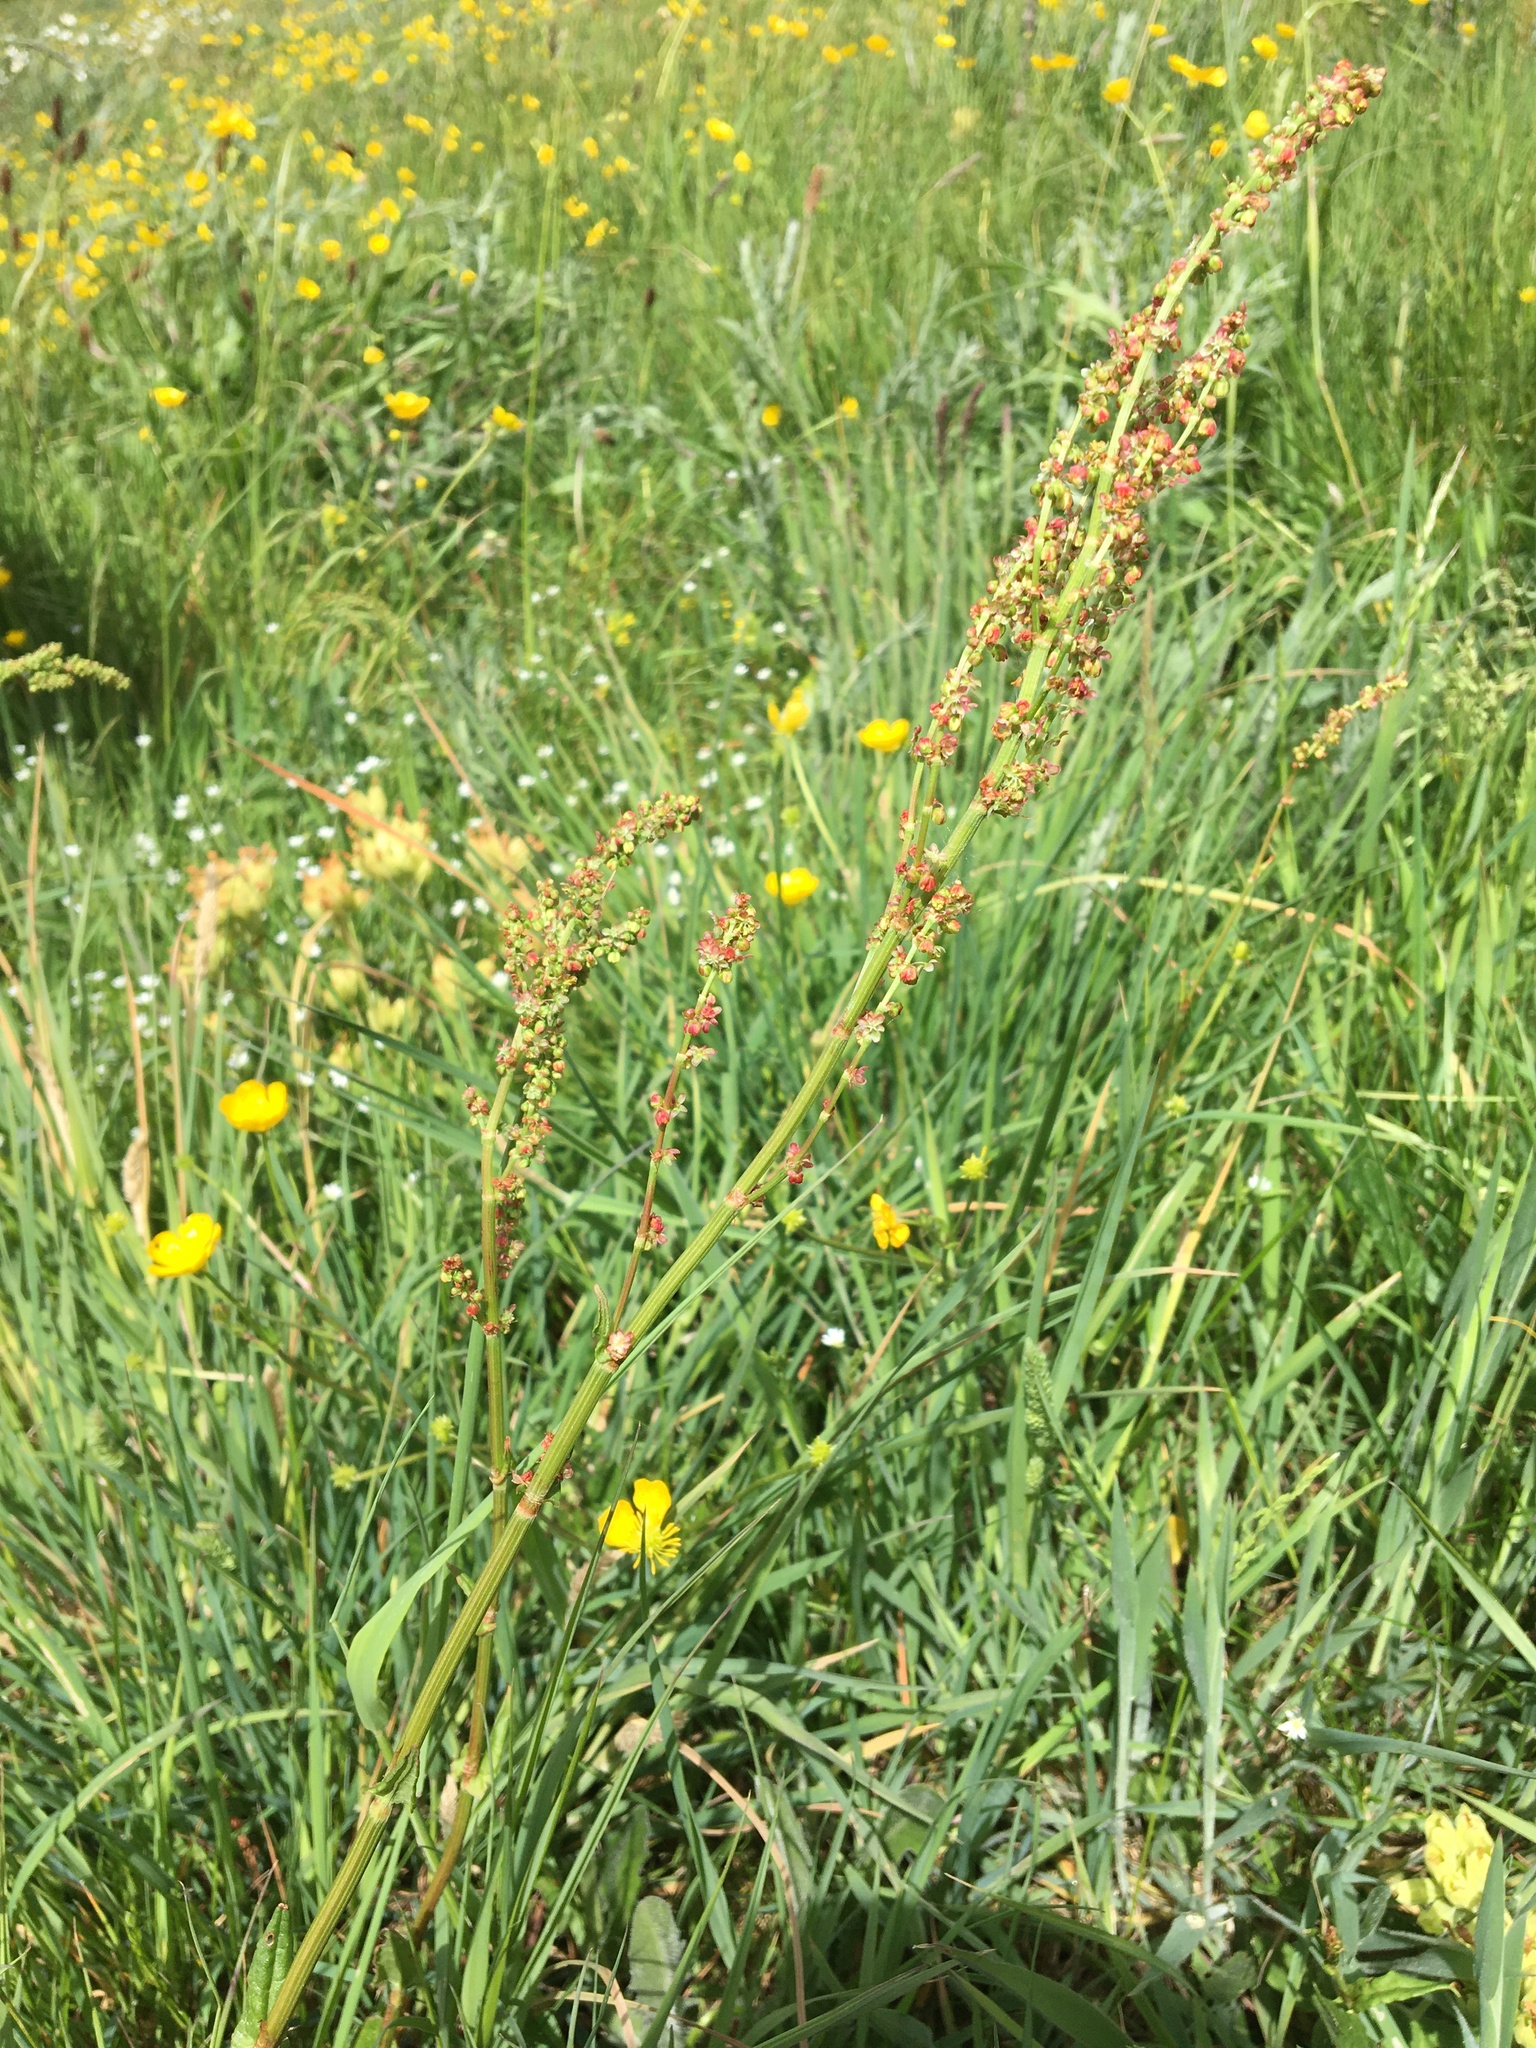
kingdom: Plantae
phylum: Tracheophyta
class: Magnoliopsida
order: Caryophyllales
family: Polygonaceae
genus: Rumex
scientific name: Rumex acetosa
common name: Garden sorrel
